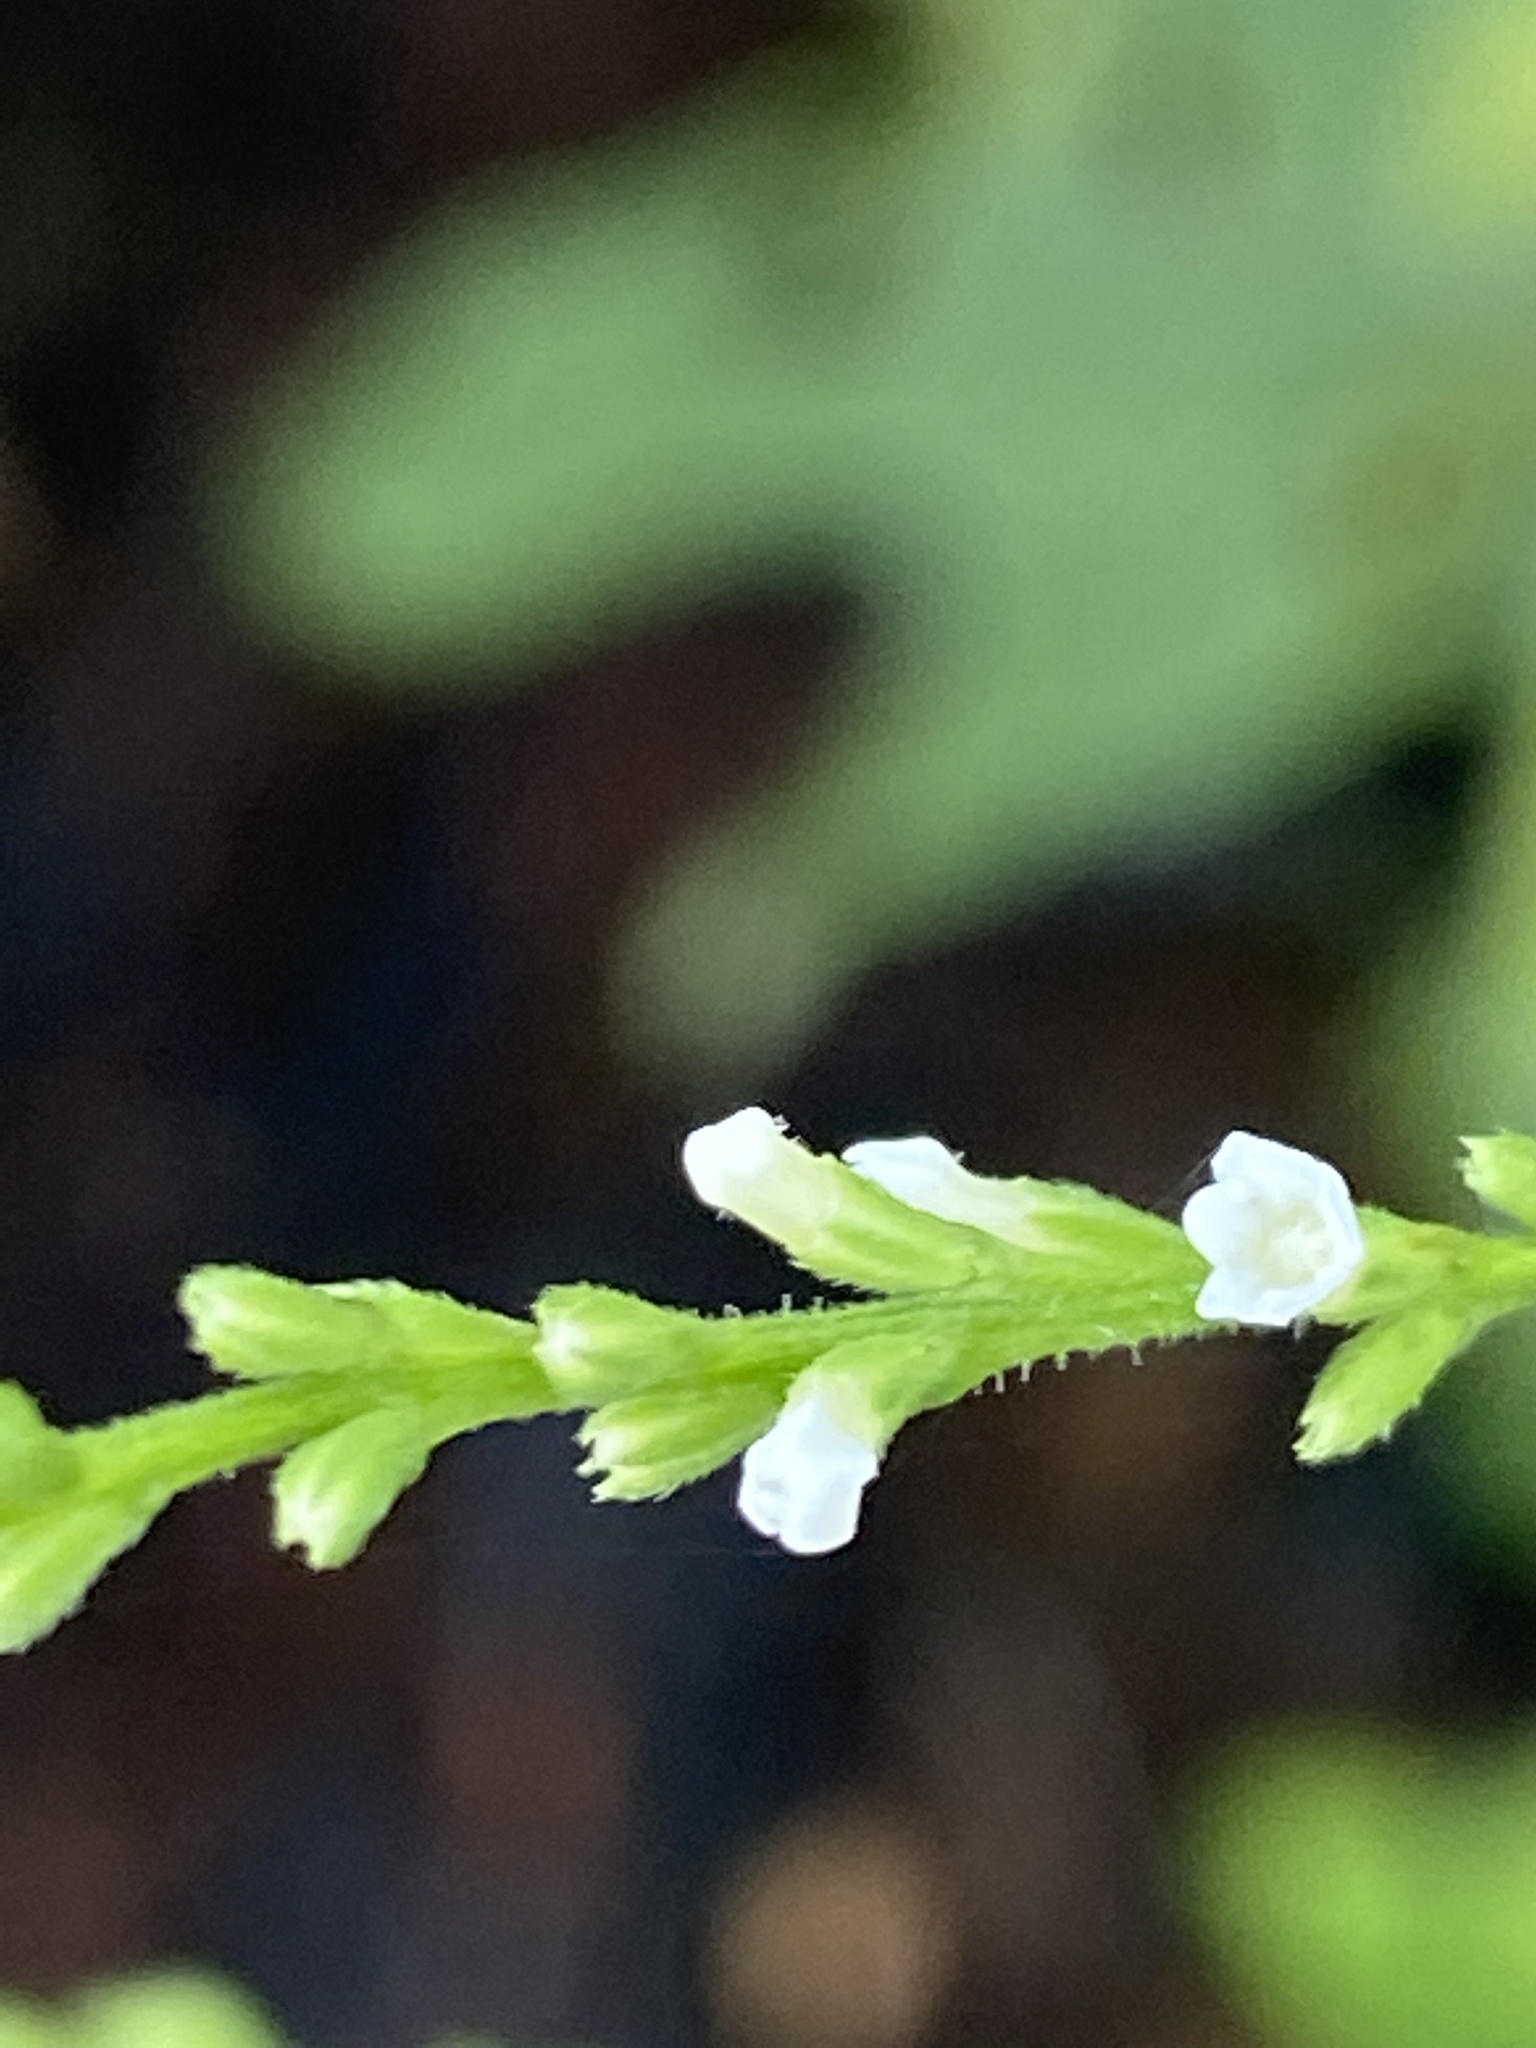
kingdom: Plantae
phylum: Tracheophyta
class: Magnoliopsida
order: Lamiales
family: Verbenaceae
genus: Verbena
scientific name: Verbena urticifolia
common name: Nettle-leaved vervain
